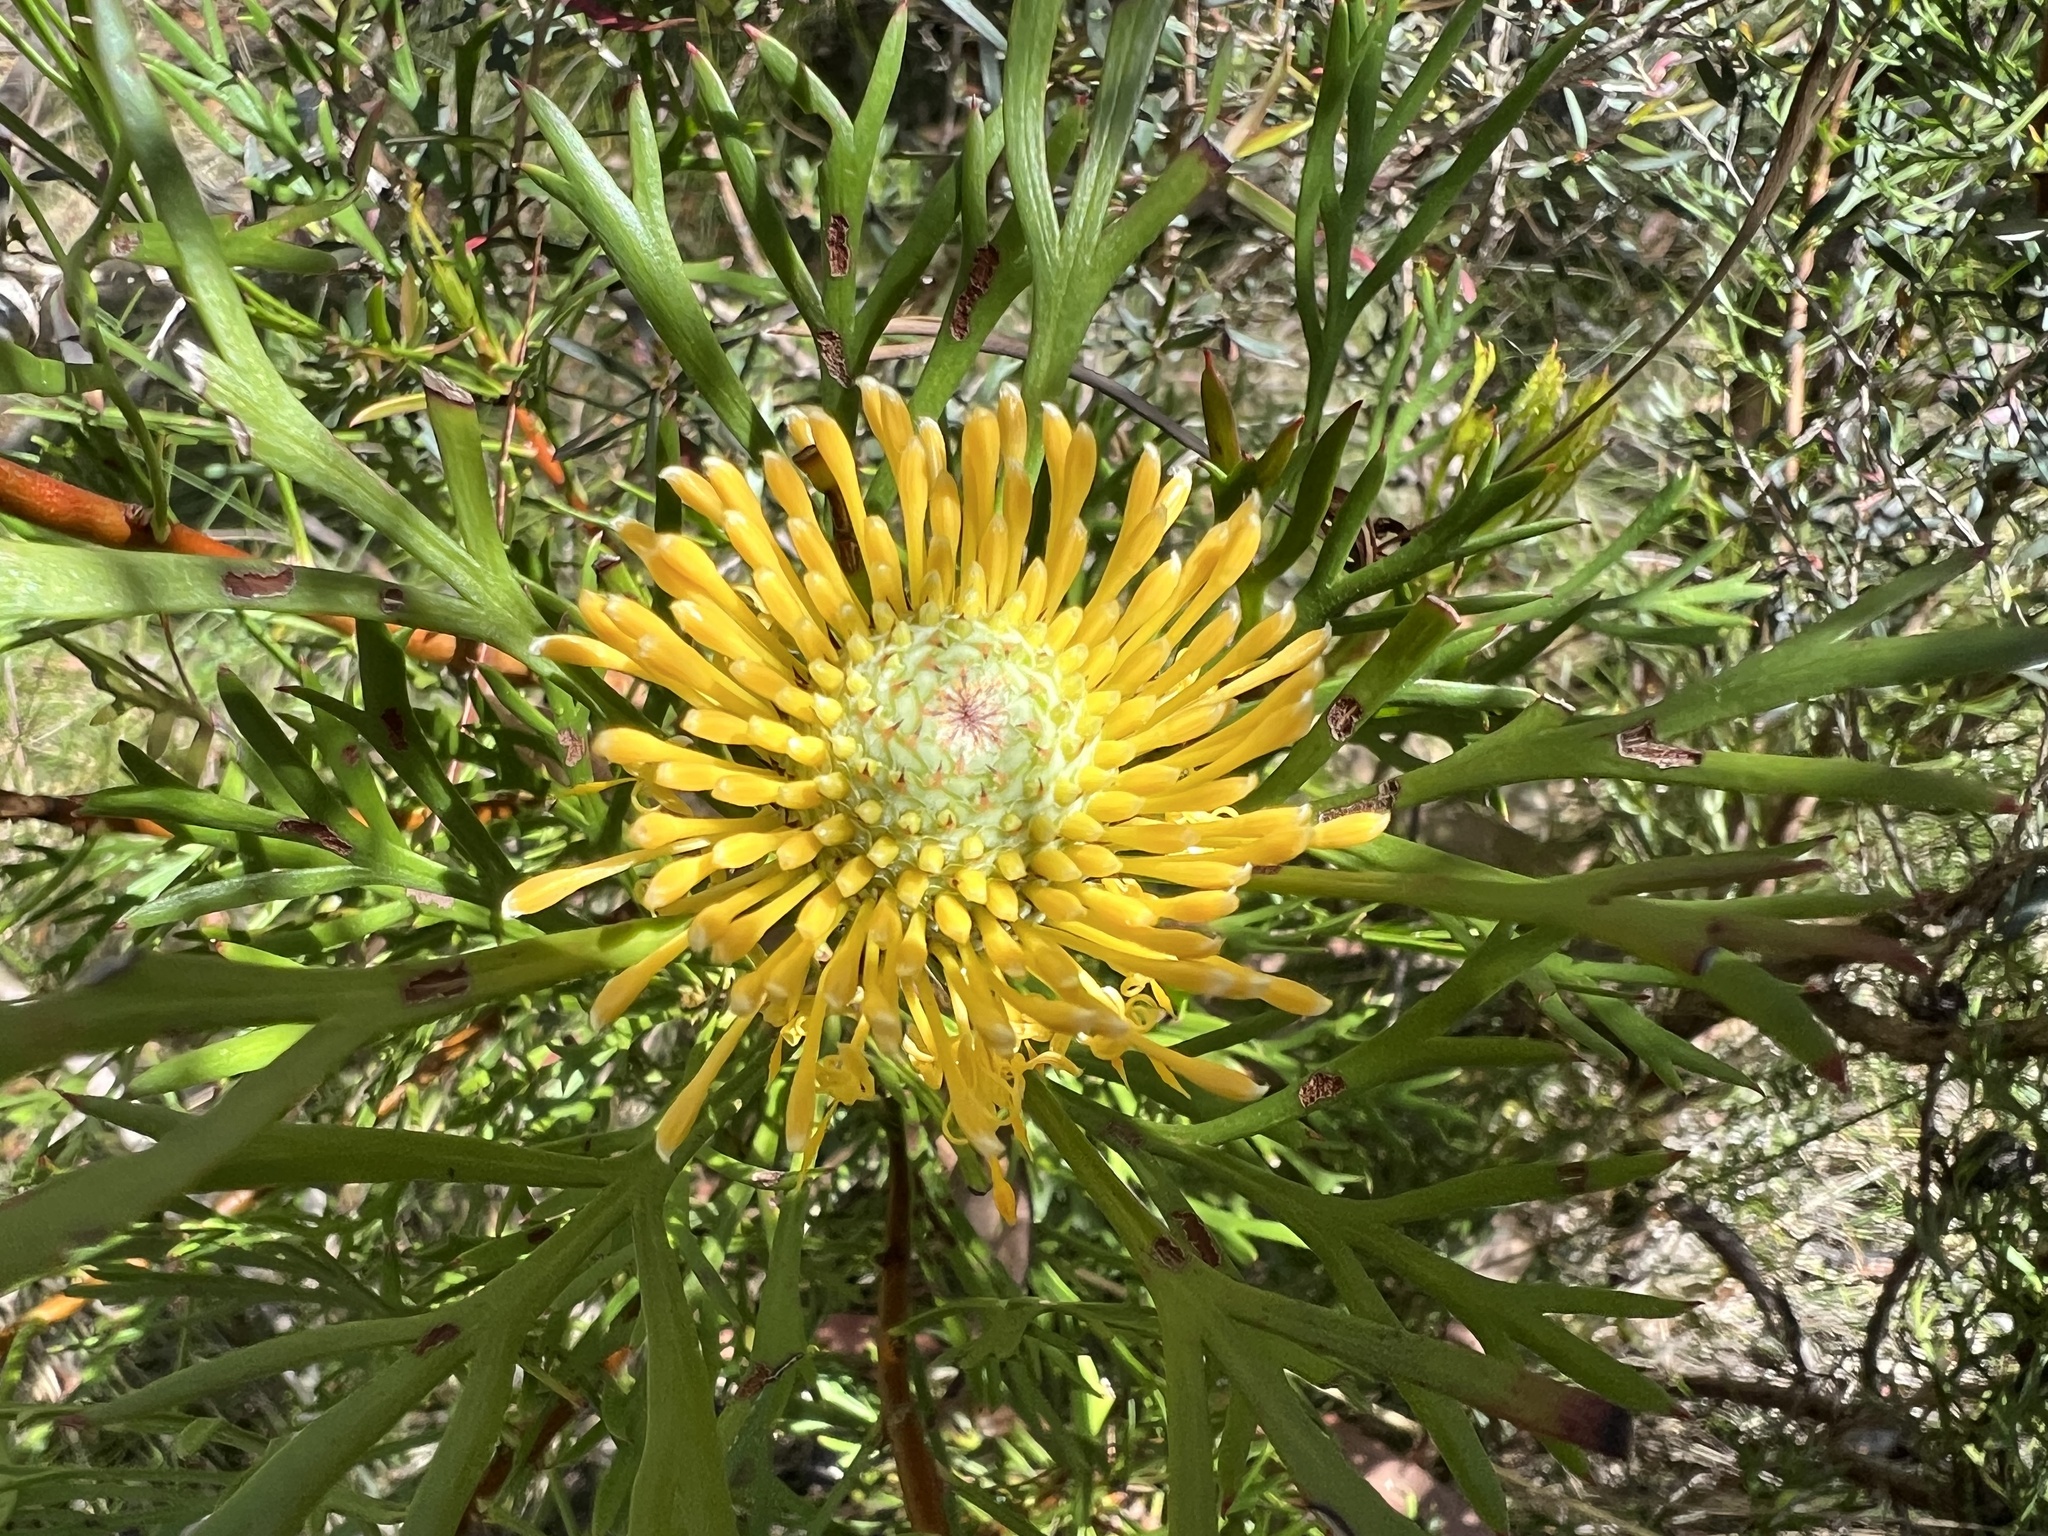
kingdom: Plantae
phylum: Tracheophyta
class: Magnoliopsida
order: Proteales
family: Proteaceae
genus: Isopogon
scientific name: Isopogon anemonifolius
